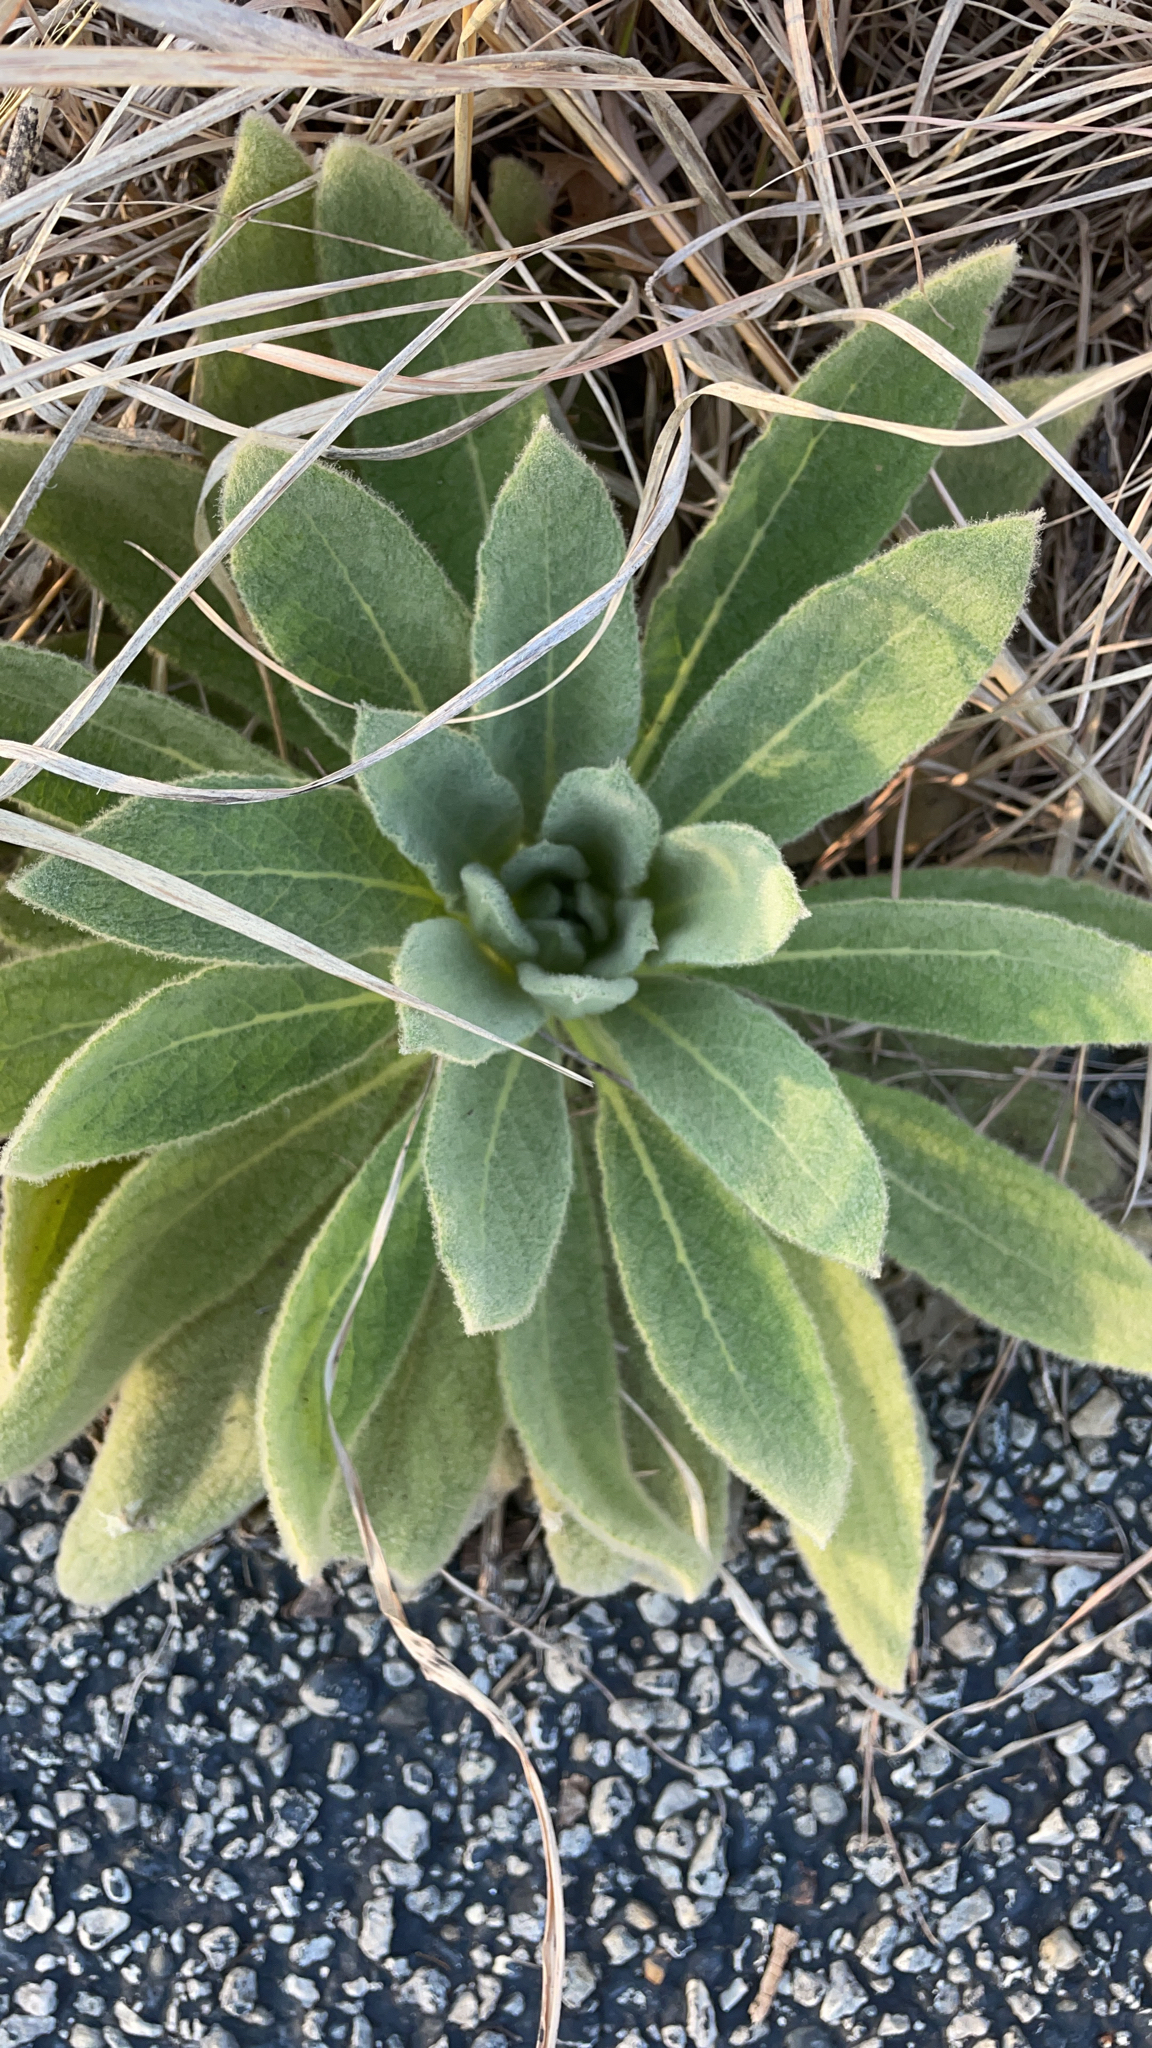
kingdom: Plantae
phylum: Tracheophyta
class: Magnoliopsida
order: Lamiales
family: Scrophulariaceae
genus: Verbascum
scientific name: Verbascum thapsus
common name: Common mullein
